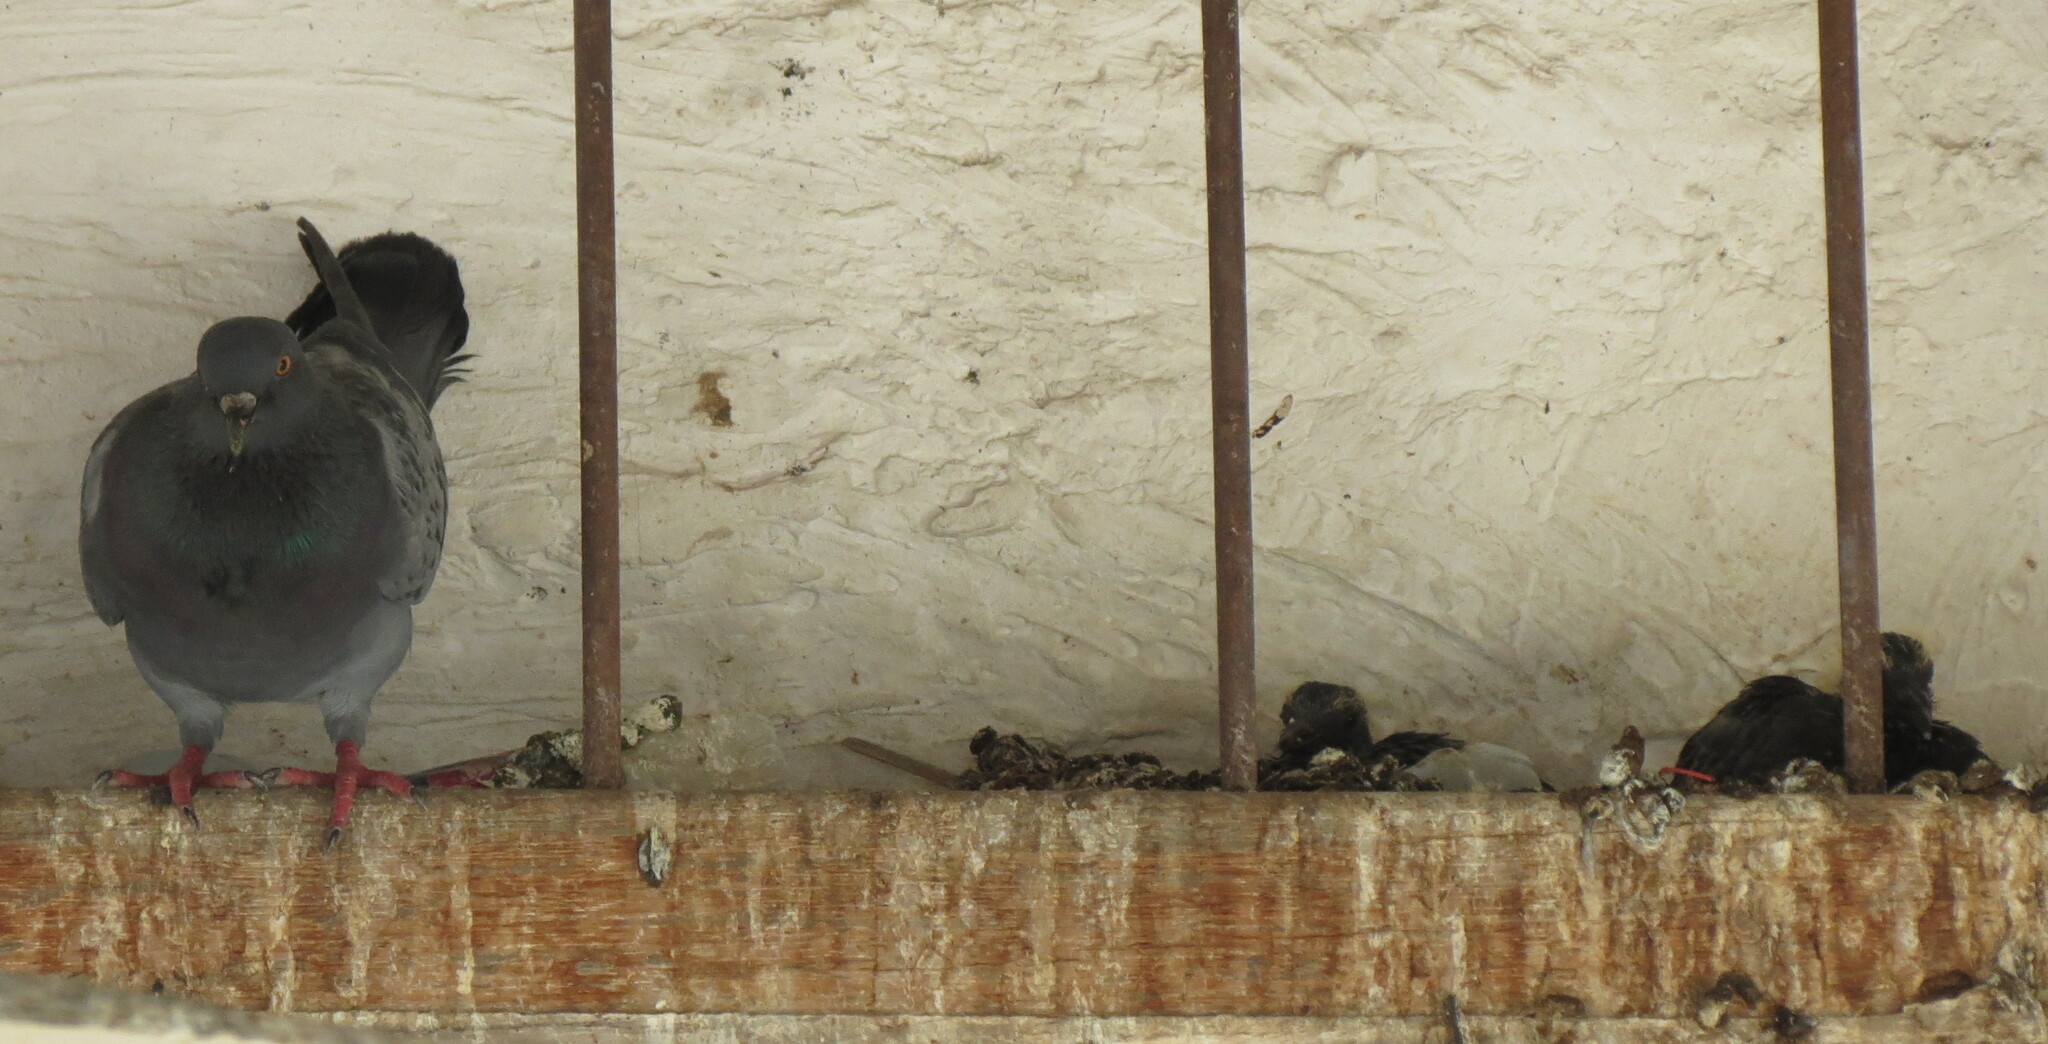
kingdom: Animalia
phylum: Chordata
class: Aves
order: Columbiformes
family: Columbidae
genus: Columba
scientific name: Columba livia
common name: Rock pigeon
